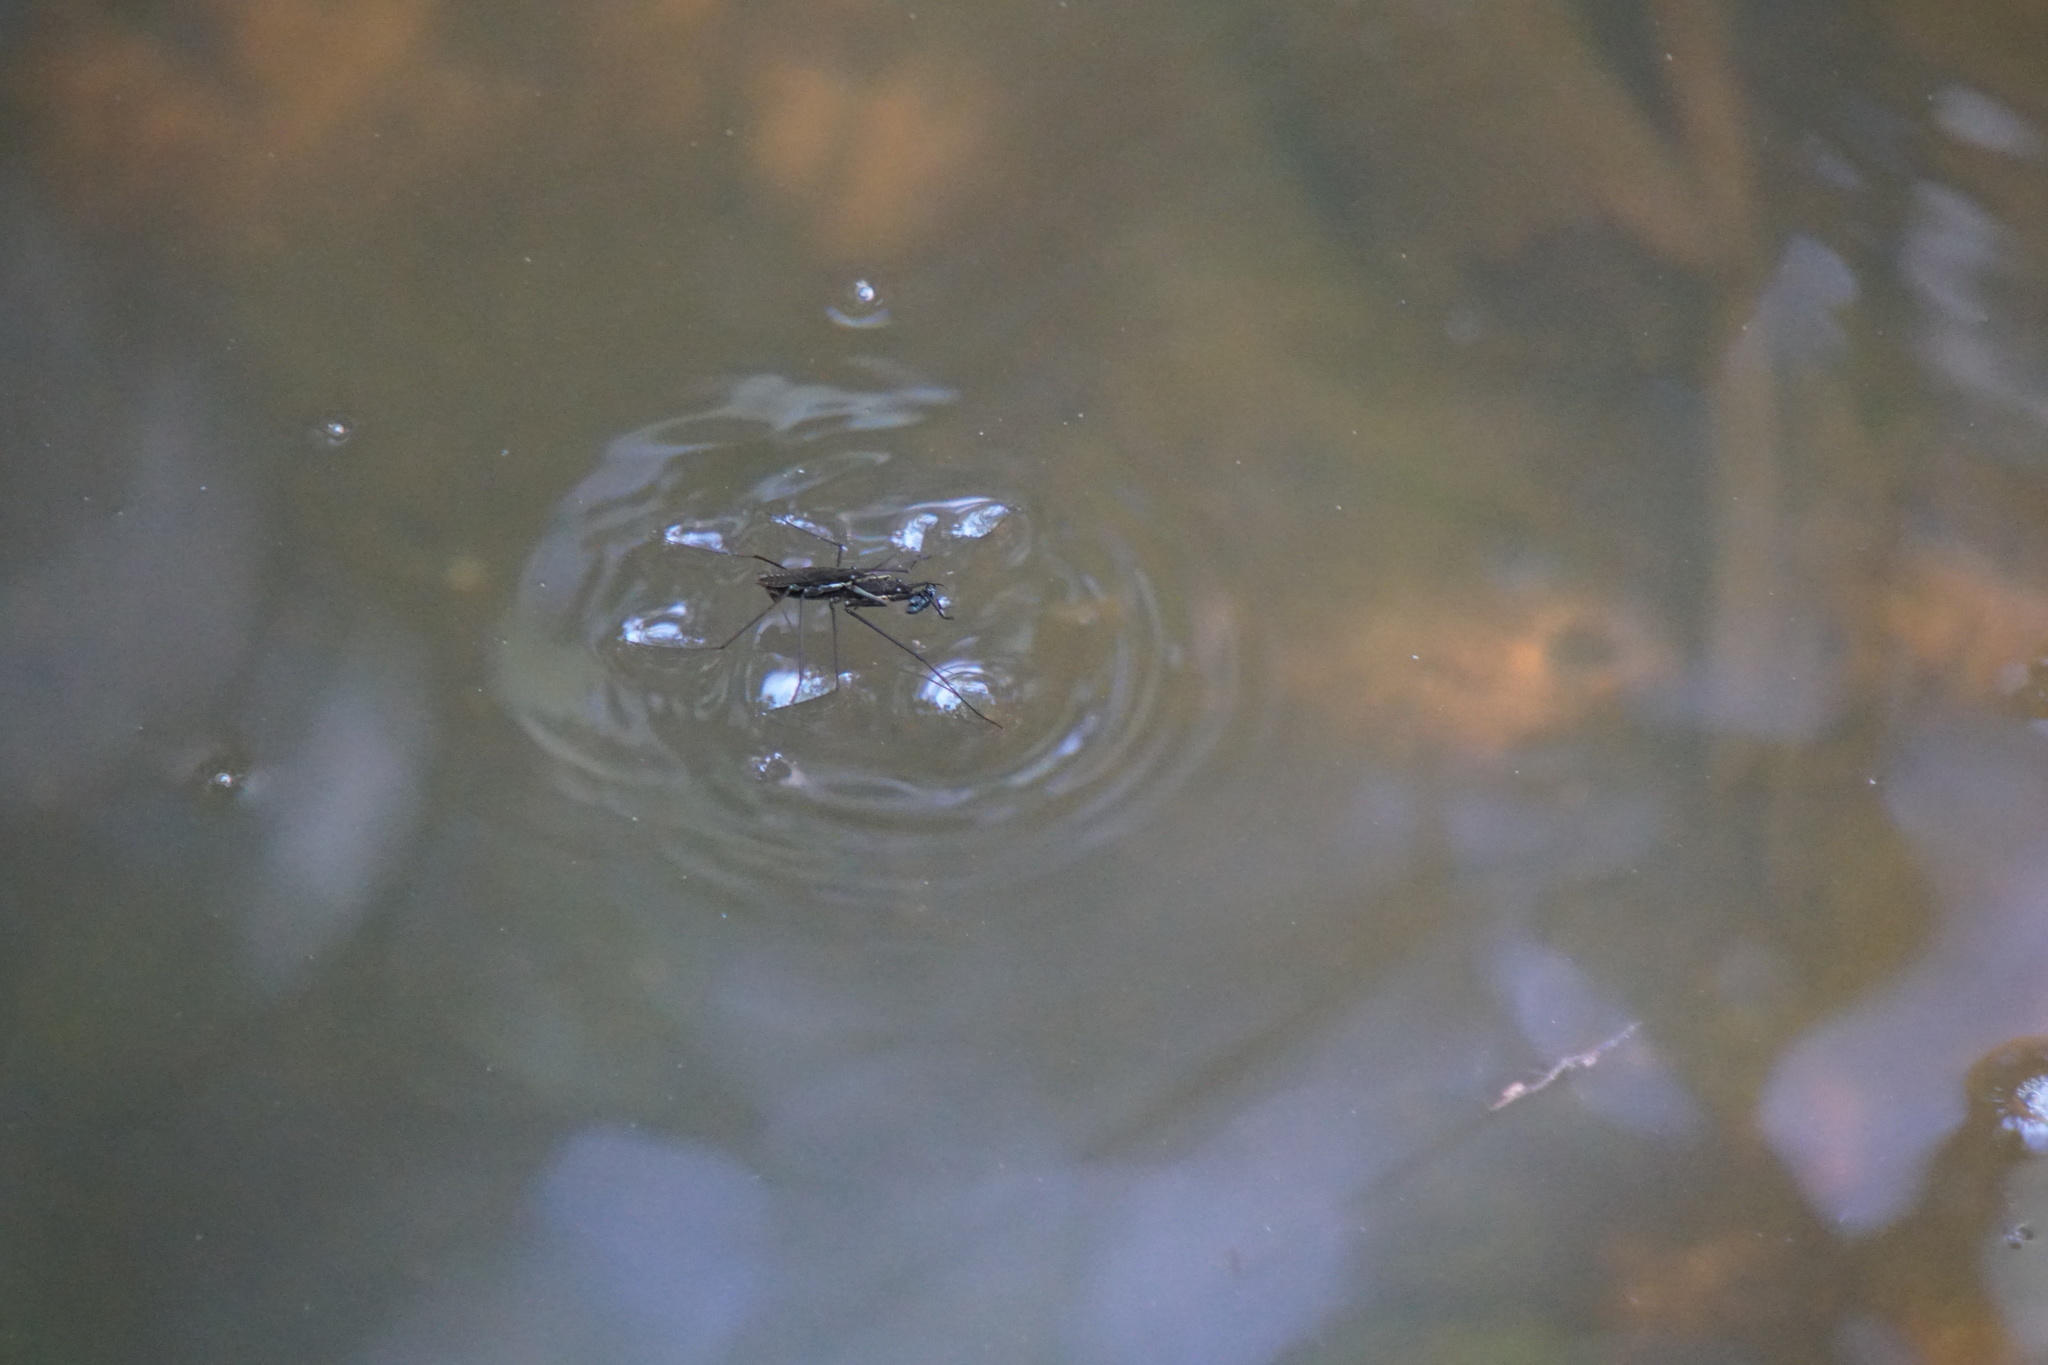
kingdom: Animalia
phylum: Arthropoda
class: Insecta
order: Hemiptera
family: Gerridae
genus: Aquarius
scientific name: Aquarius remigis
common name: Common water strider
